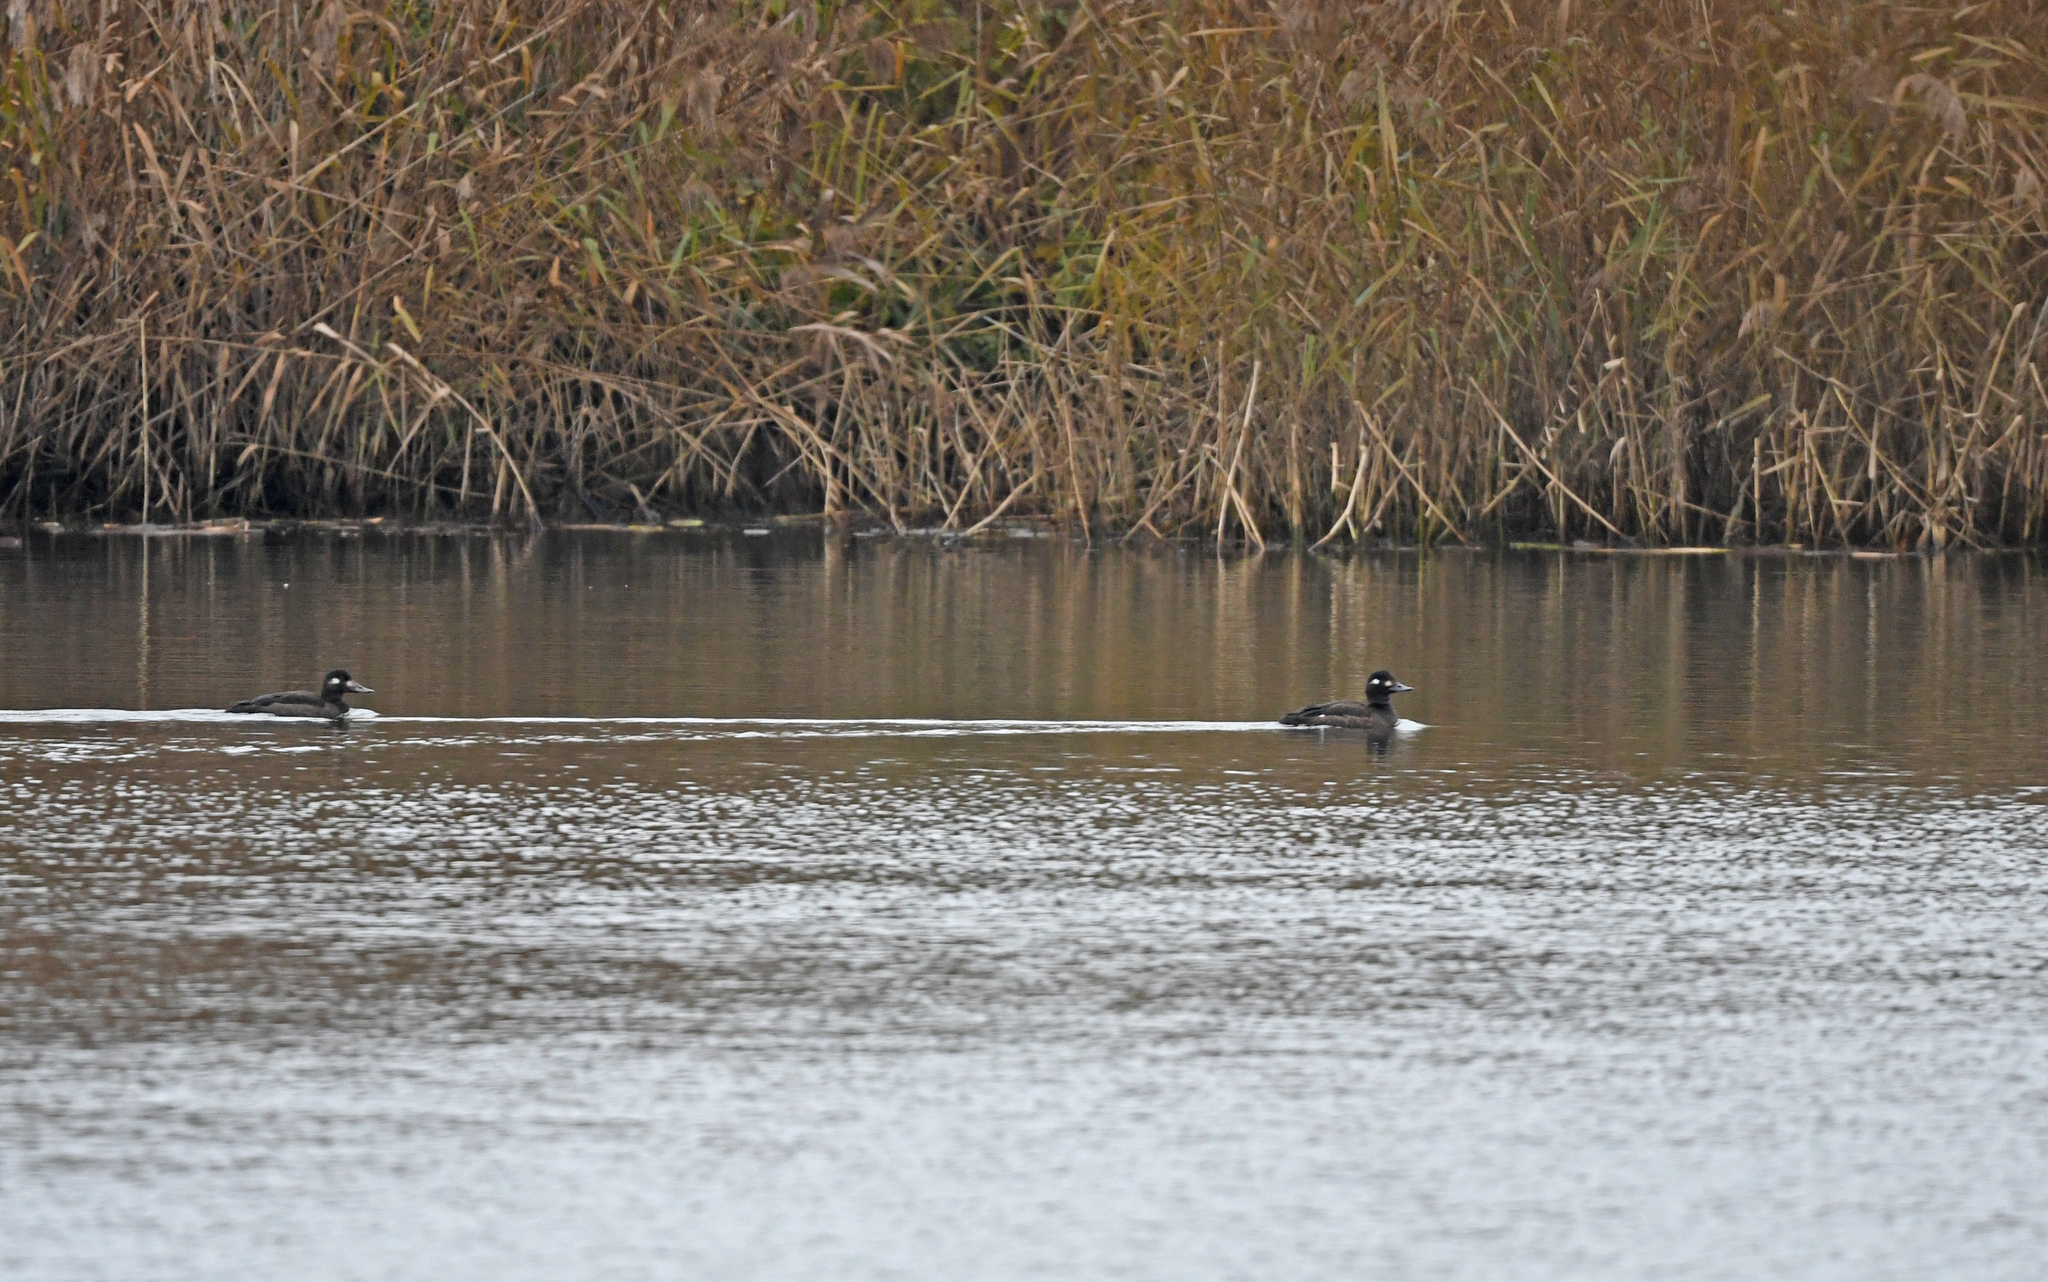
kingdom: Animalia
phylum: Chordata
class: Aves
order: Anseriformes
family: Anatidae
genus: Melanitta
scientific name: Melanitta fusca
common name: Velvet scoter
